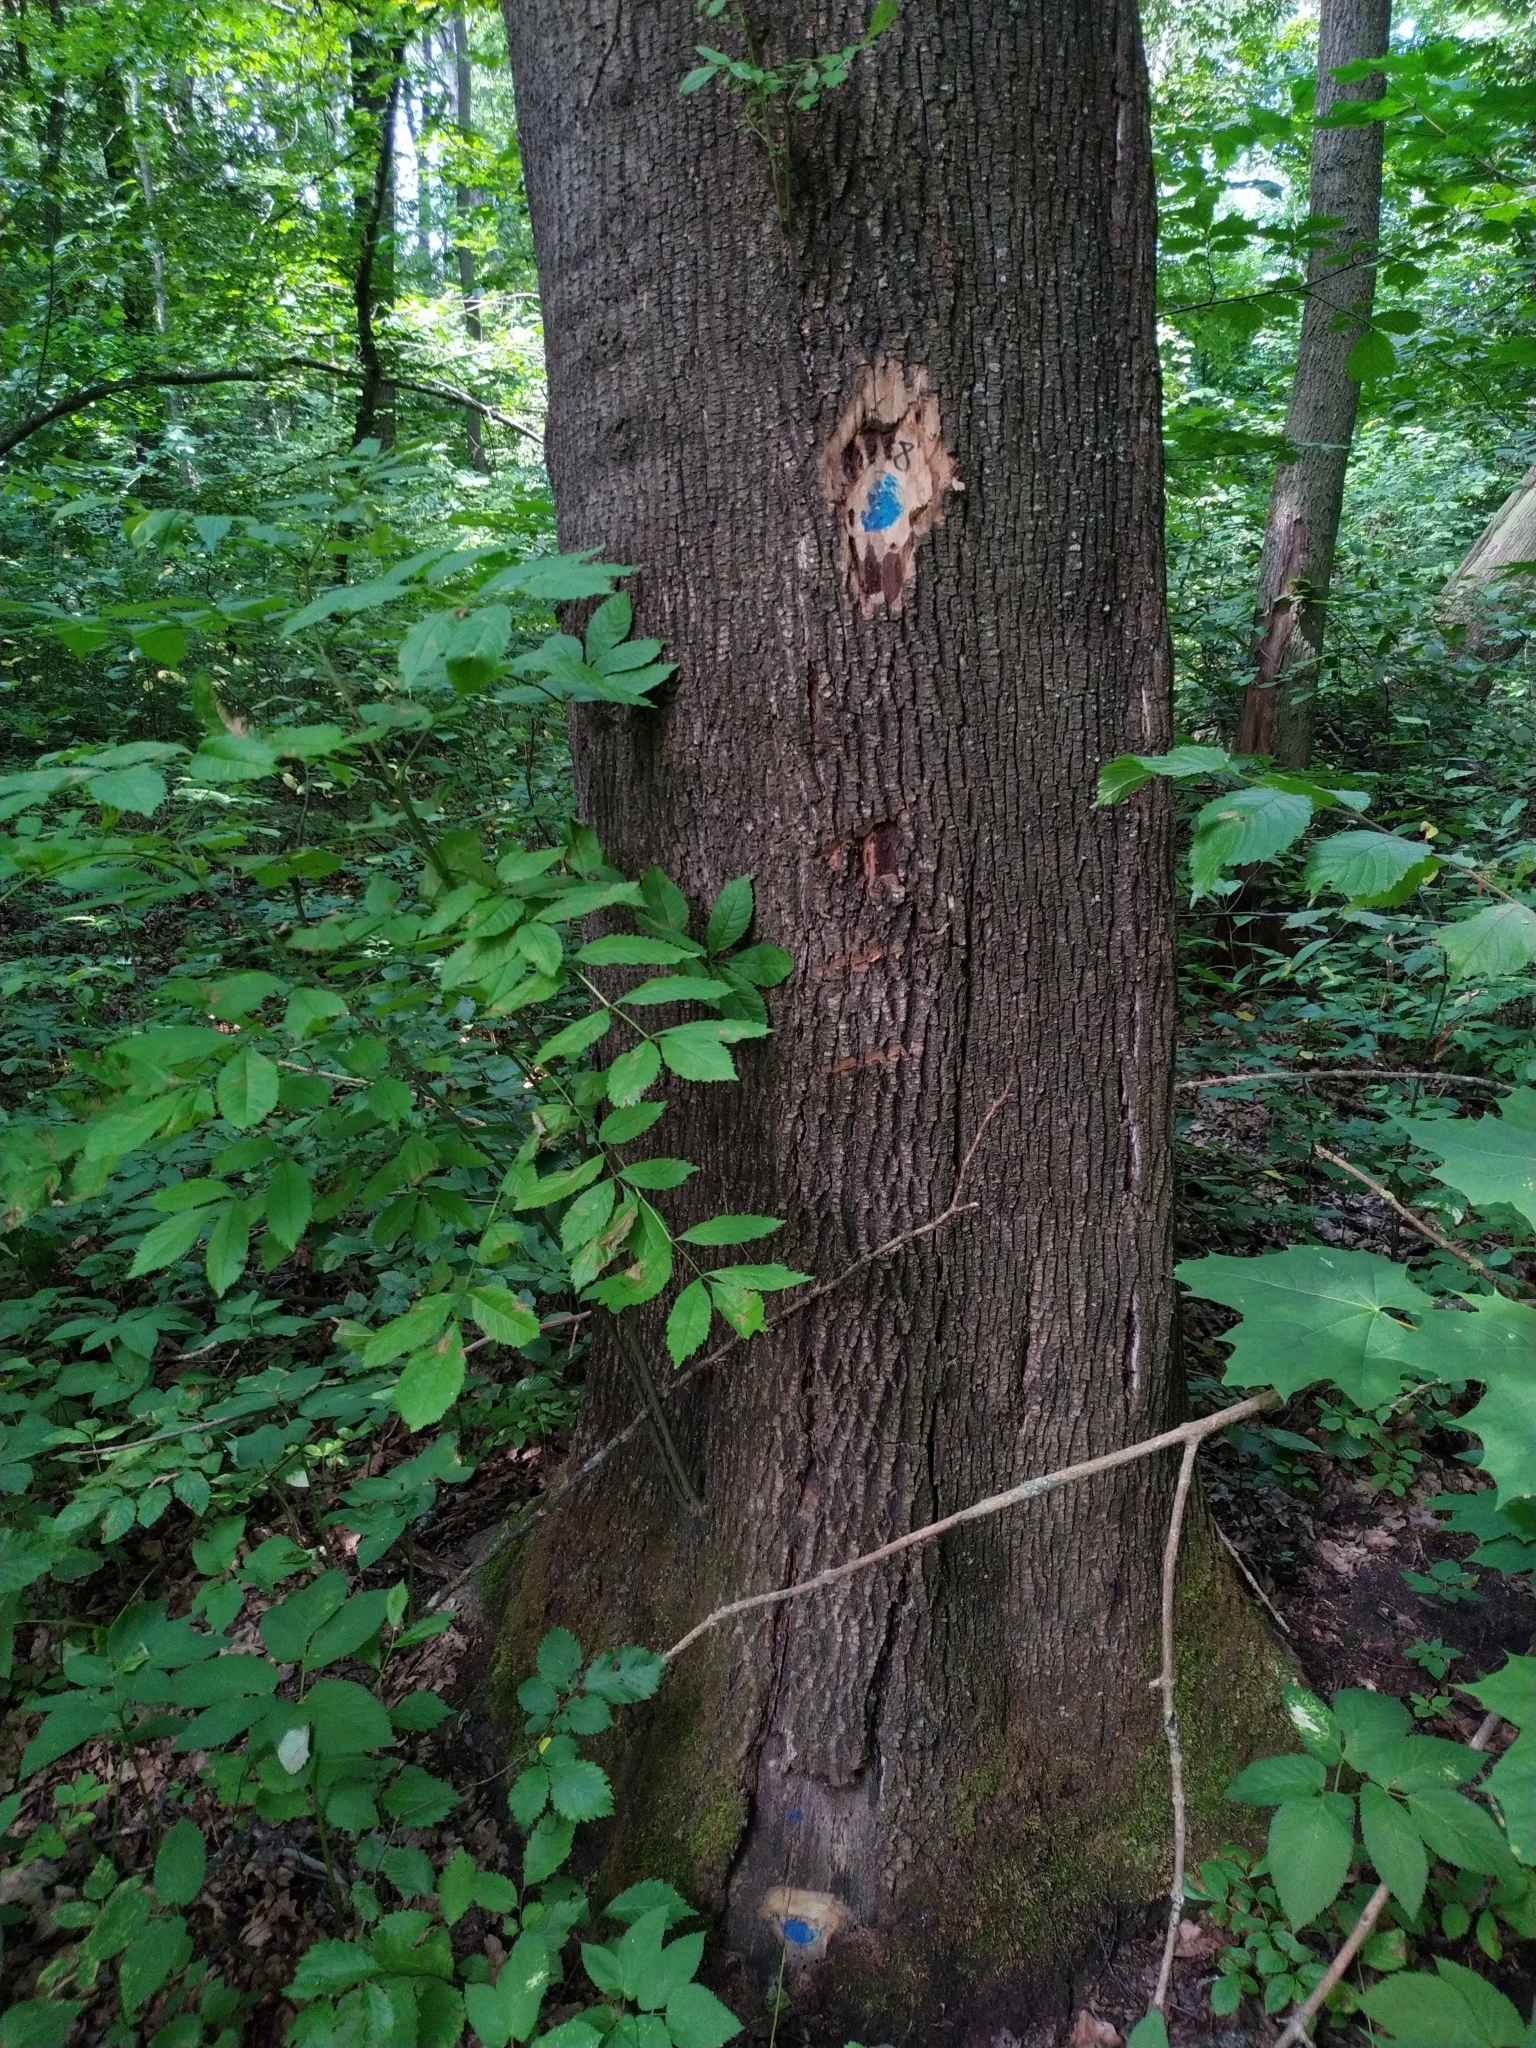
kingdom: Plantae
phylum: Tracheophyta
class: Magnoliopsida
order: Lamiales
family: Oleaceae
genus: Fraxinus
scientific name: Fraxinus excelsior
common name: European ash
